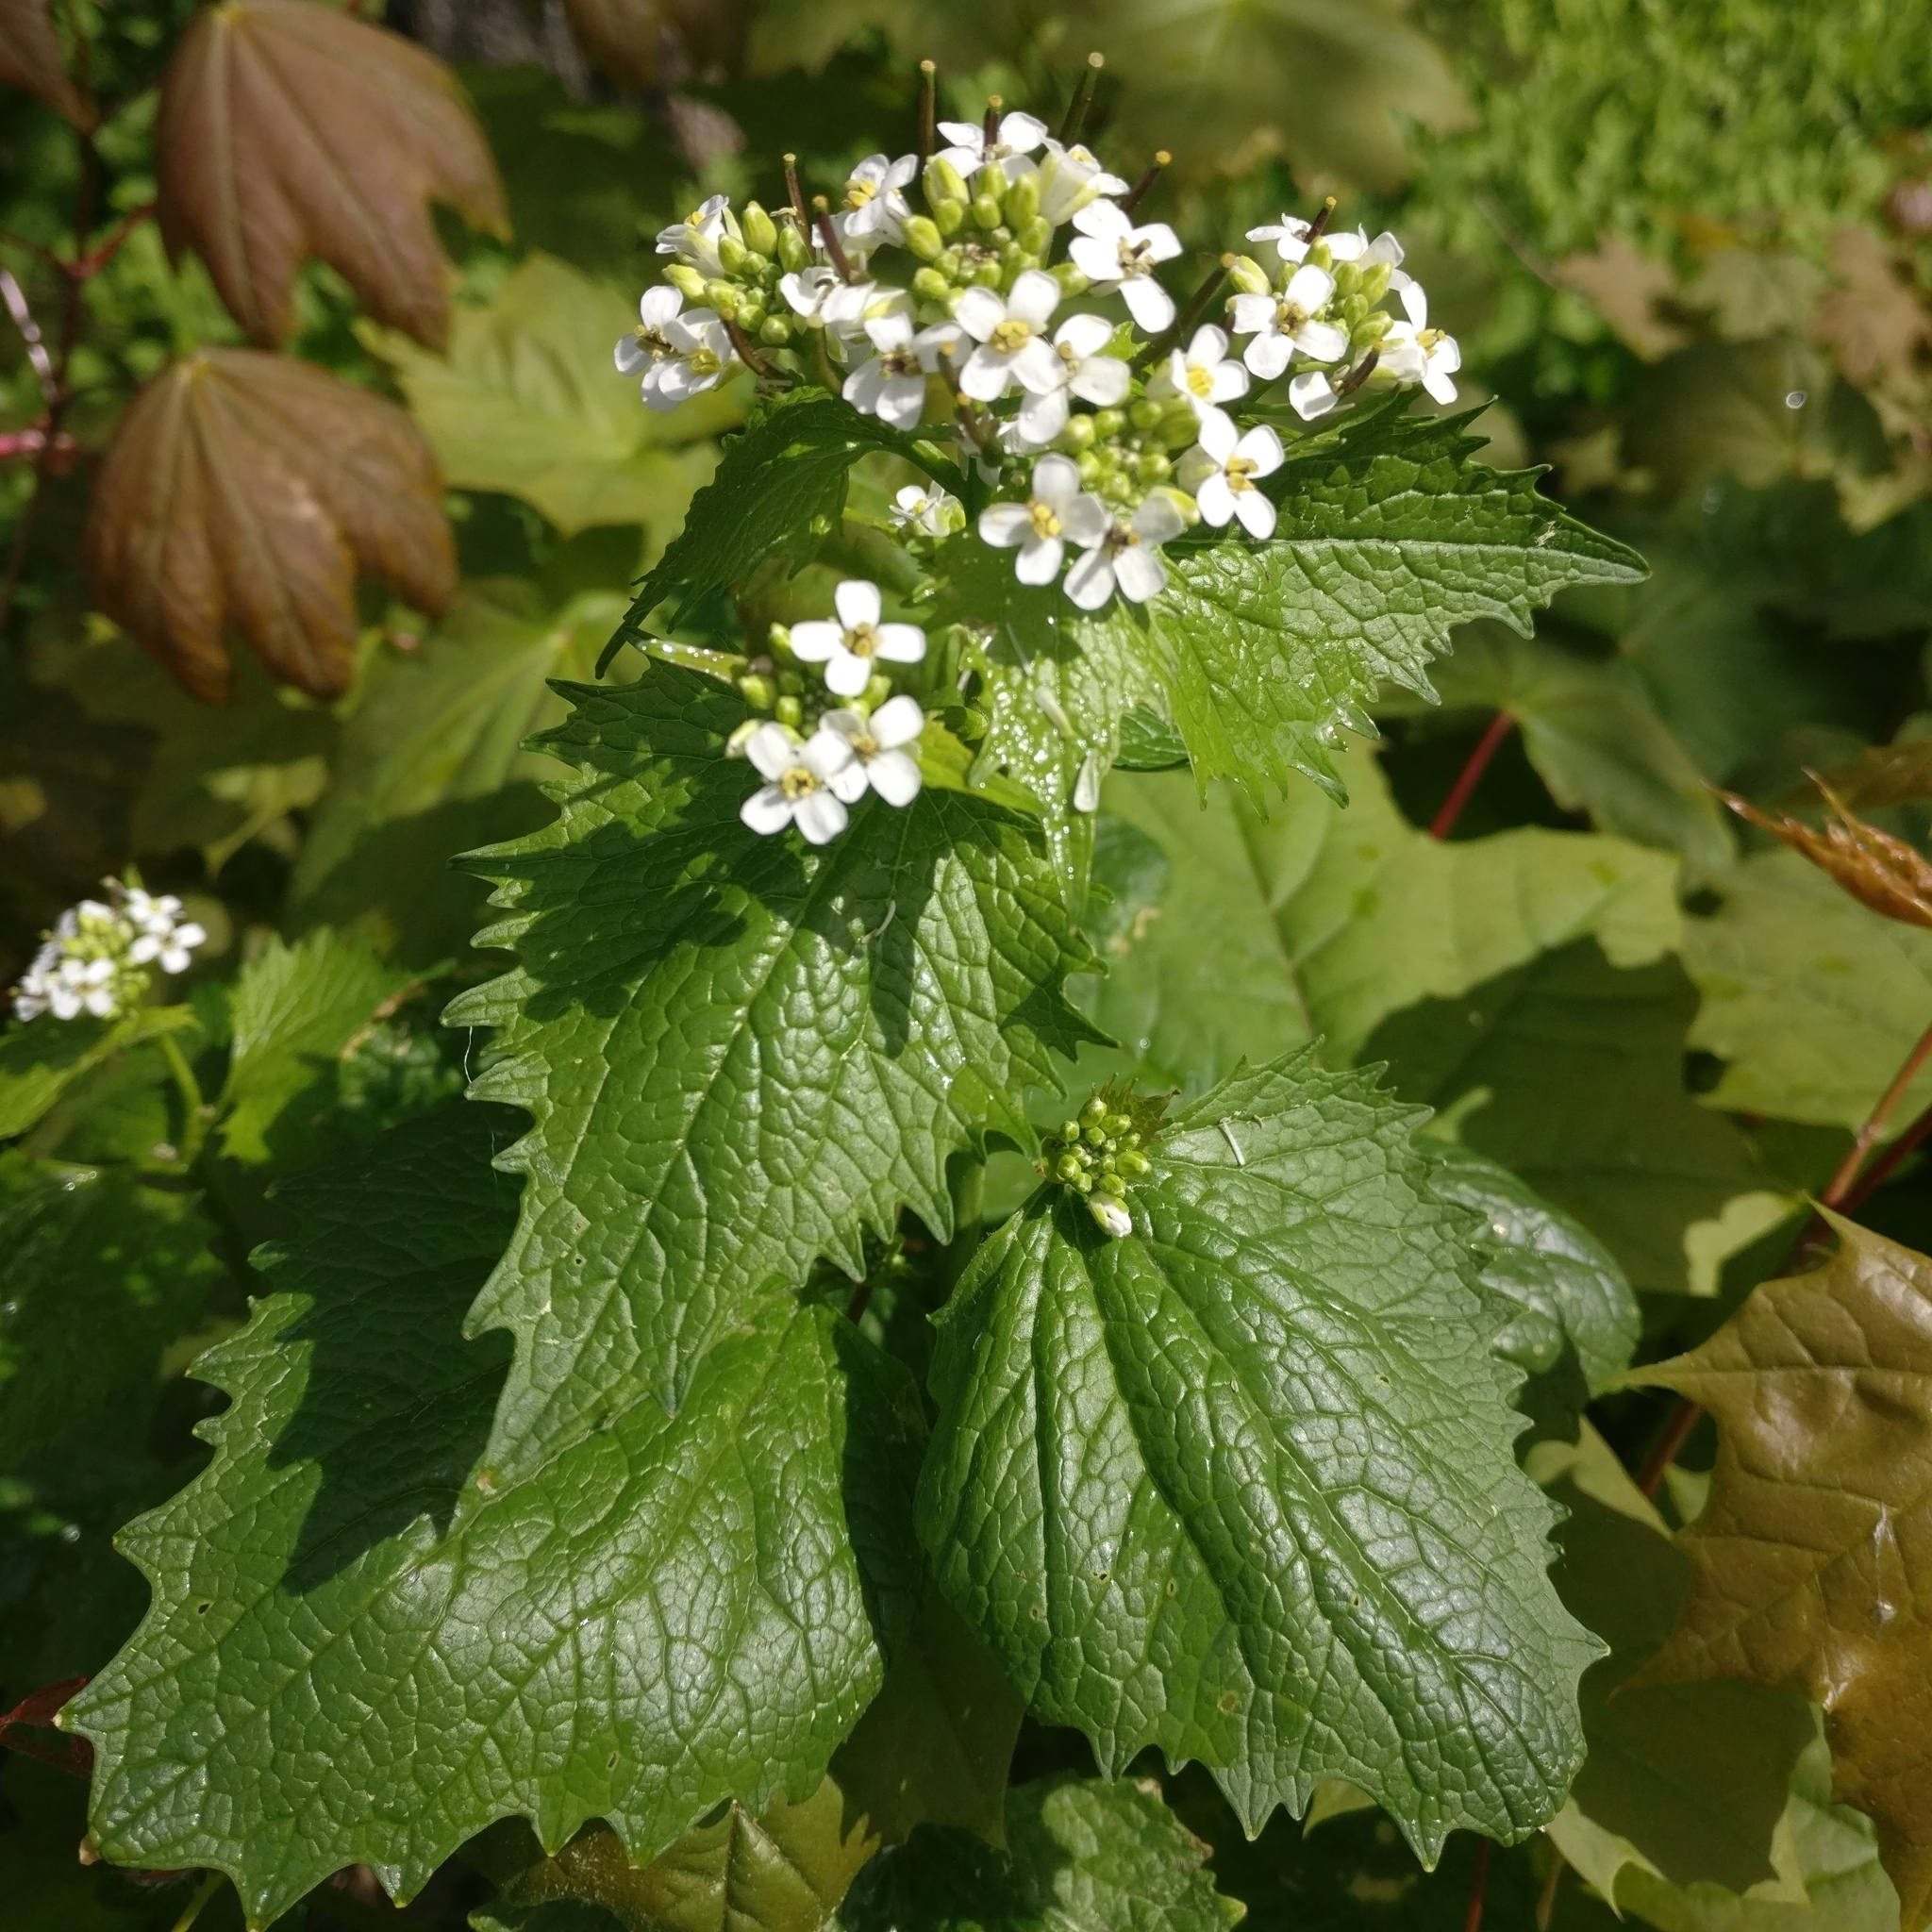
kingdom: Plantae
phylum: Tracheophyta
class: Magnoliopsida
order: Brassicales
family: Brassicaceae
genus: Alliaria
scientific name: Alliaria petiolata
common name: Garlic mustard
